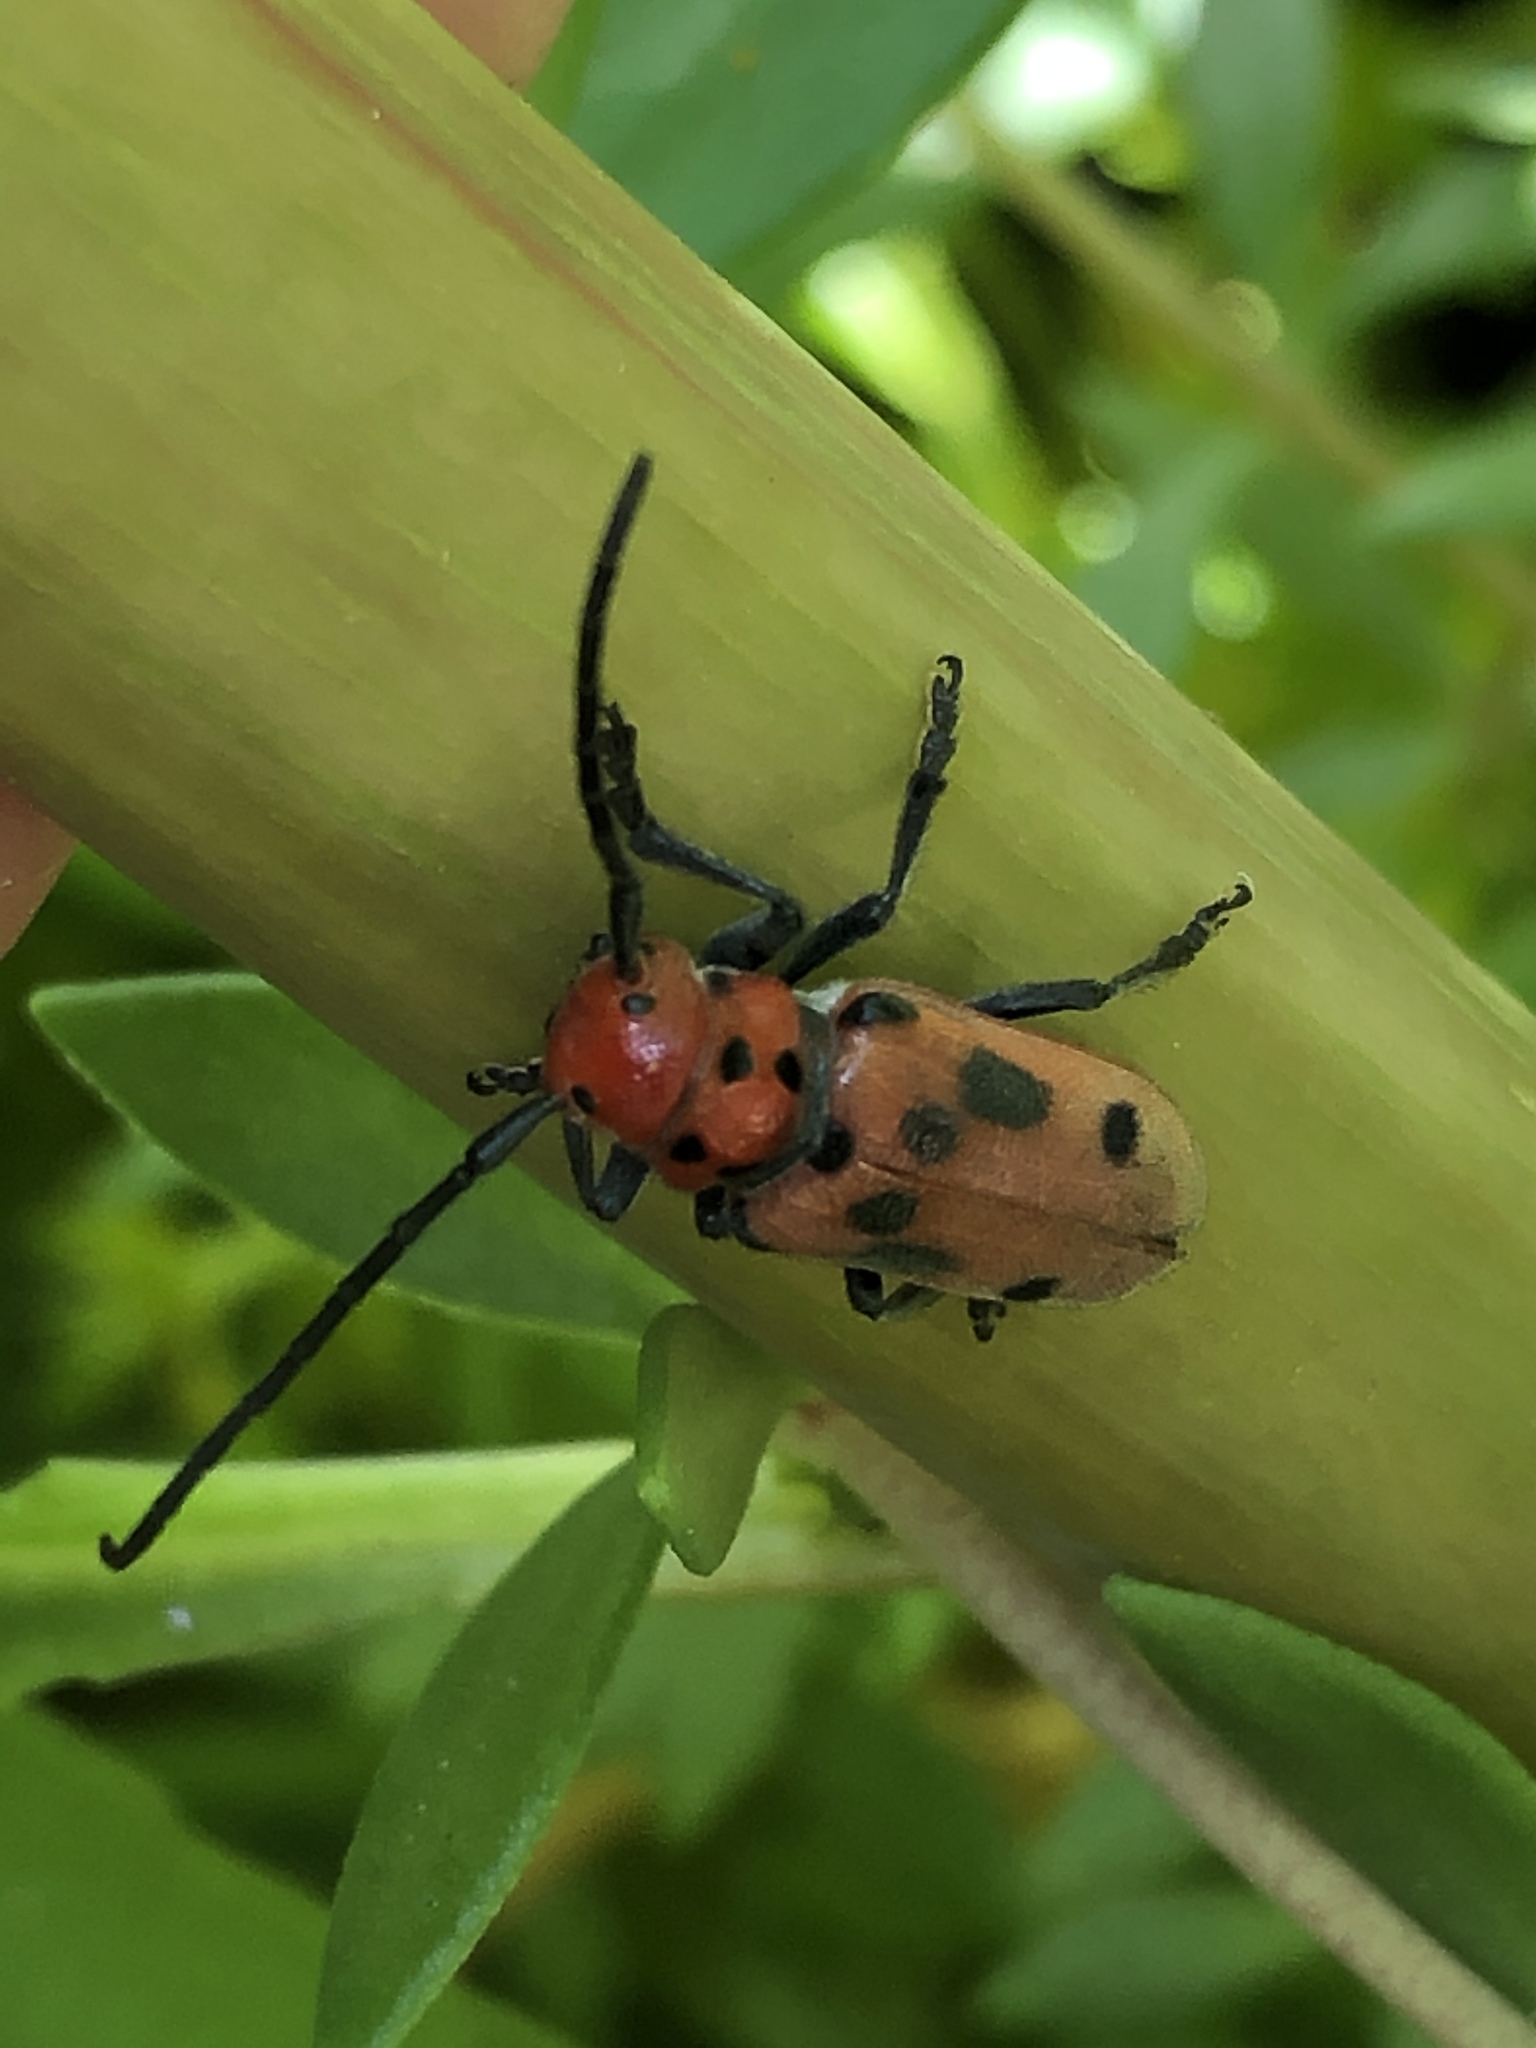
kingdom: Animalia
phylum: Arthropoda
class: Insecta
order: Coleoptera
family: Cerambycidae
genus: Tetraopes
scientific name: Tetraopes tetrophthalmus
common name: Red milkweed beetle
